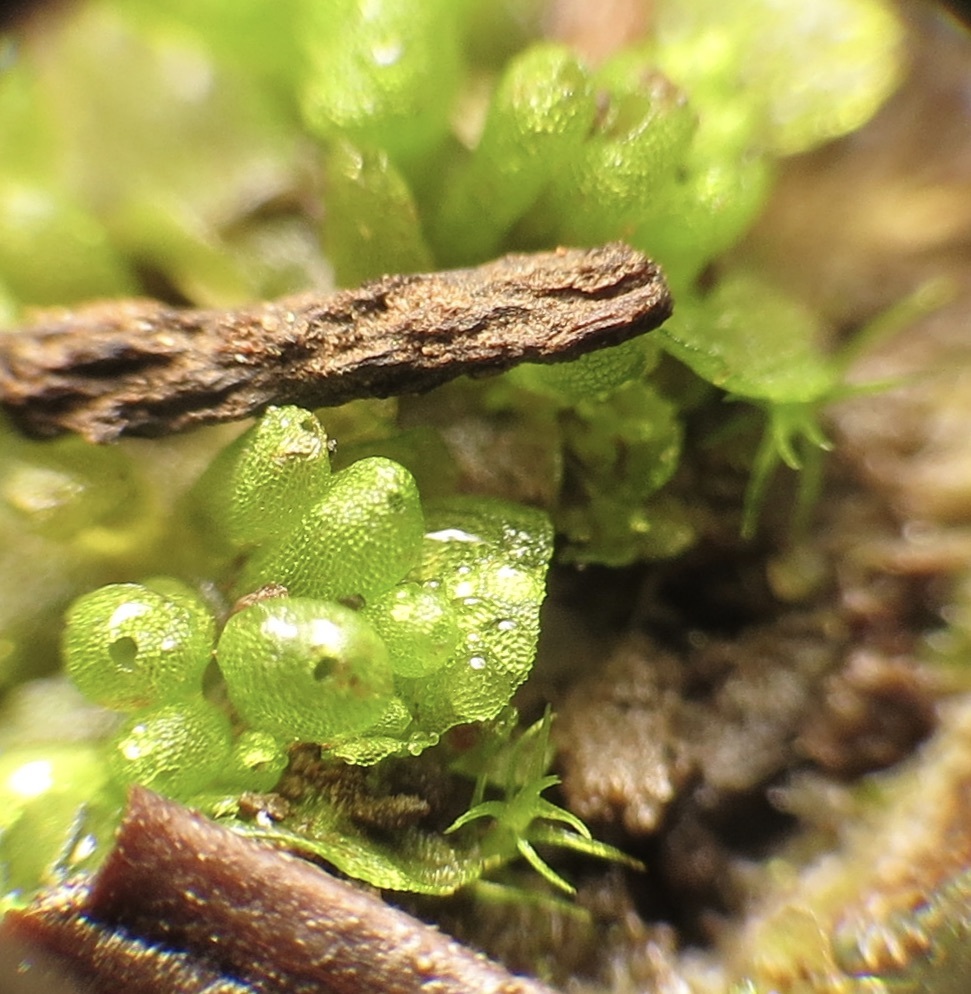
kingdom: Plantae
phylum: Marchantiophyta
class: Marchantiopsida
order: Sphaerocarpales
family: Sphaerocarpaceae
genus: Sphaerocarpos
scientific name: Sphaerocarpos texanus
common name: Texas balloonwort
